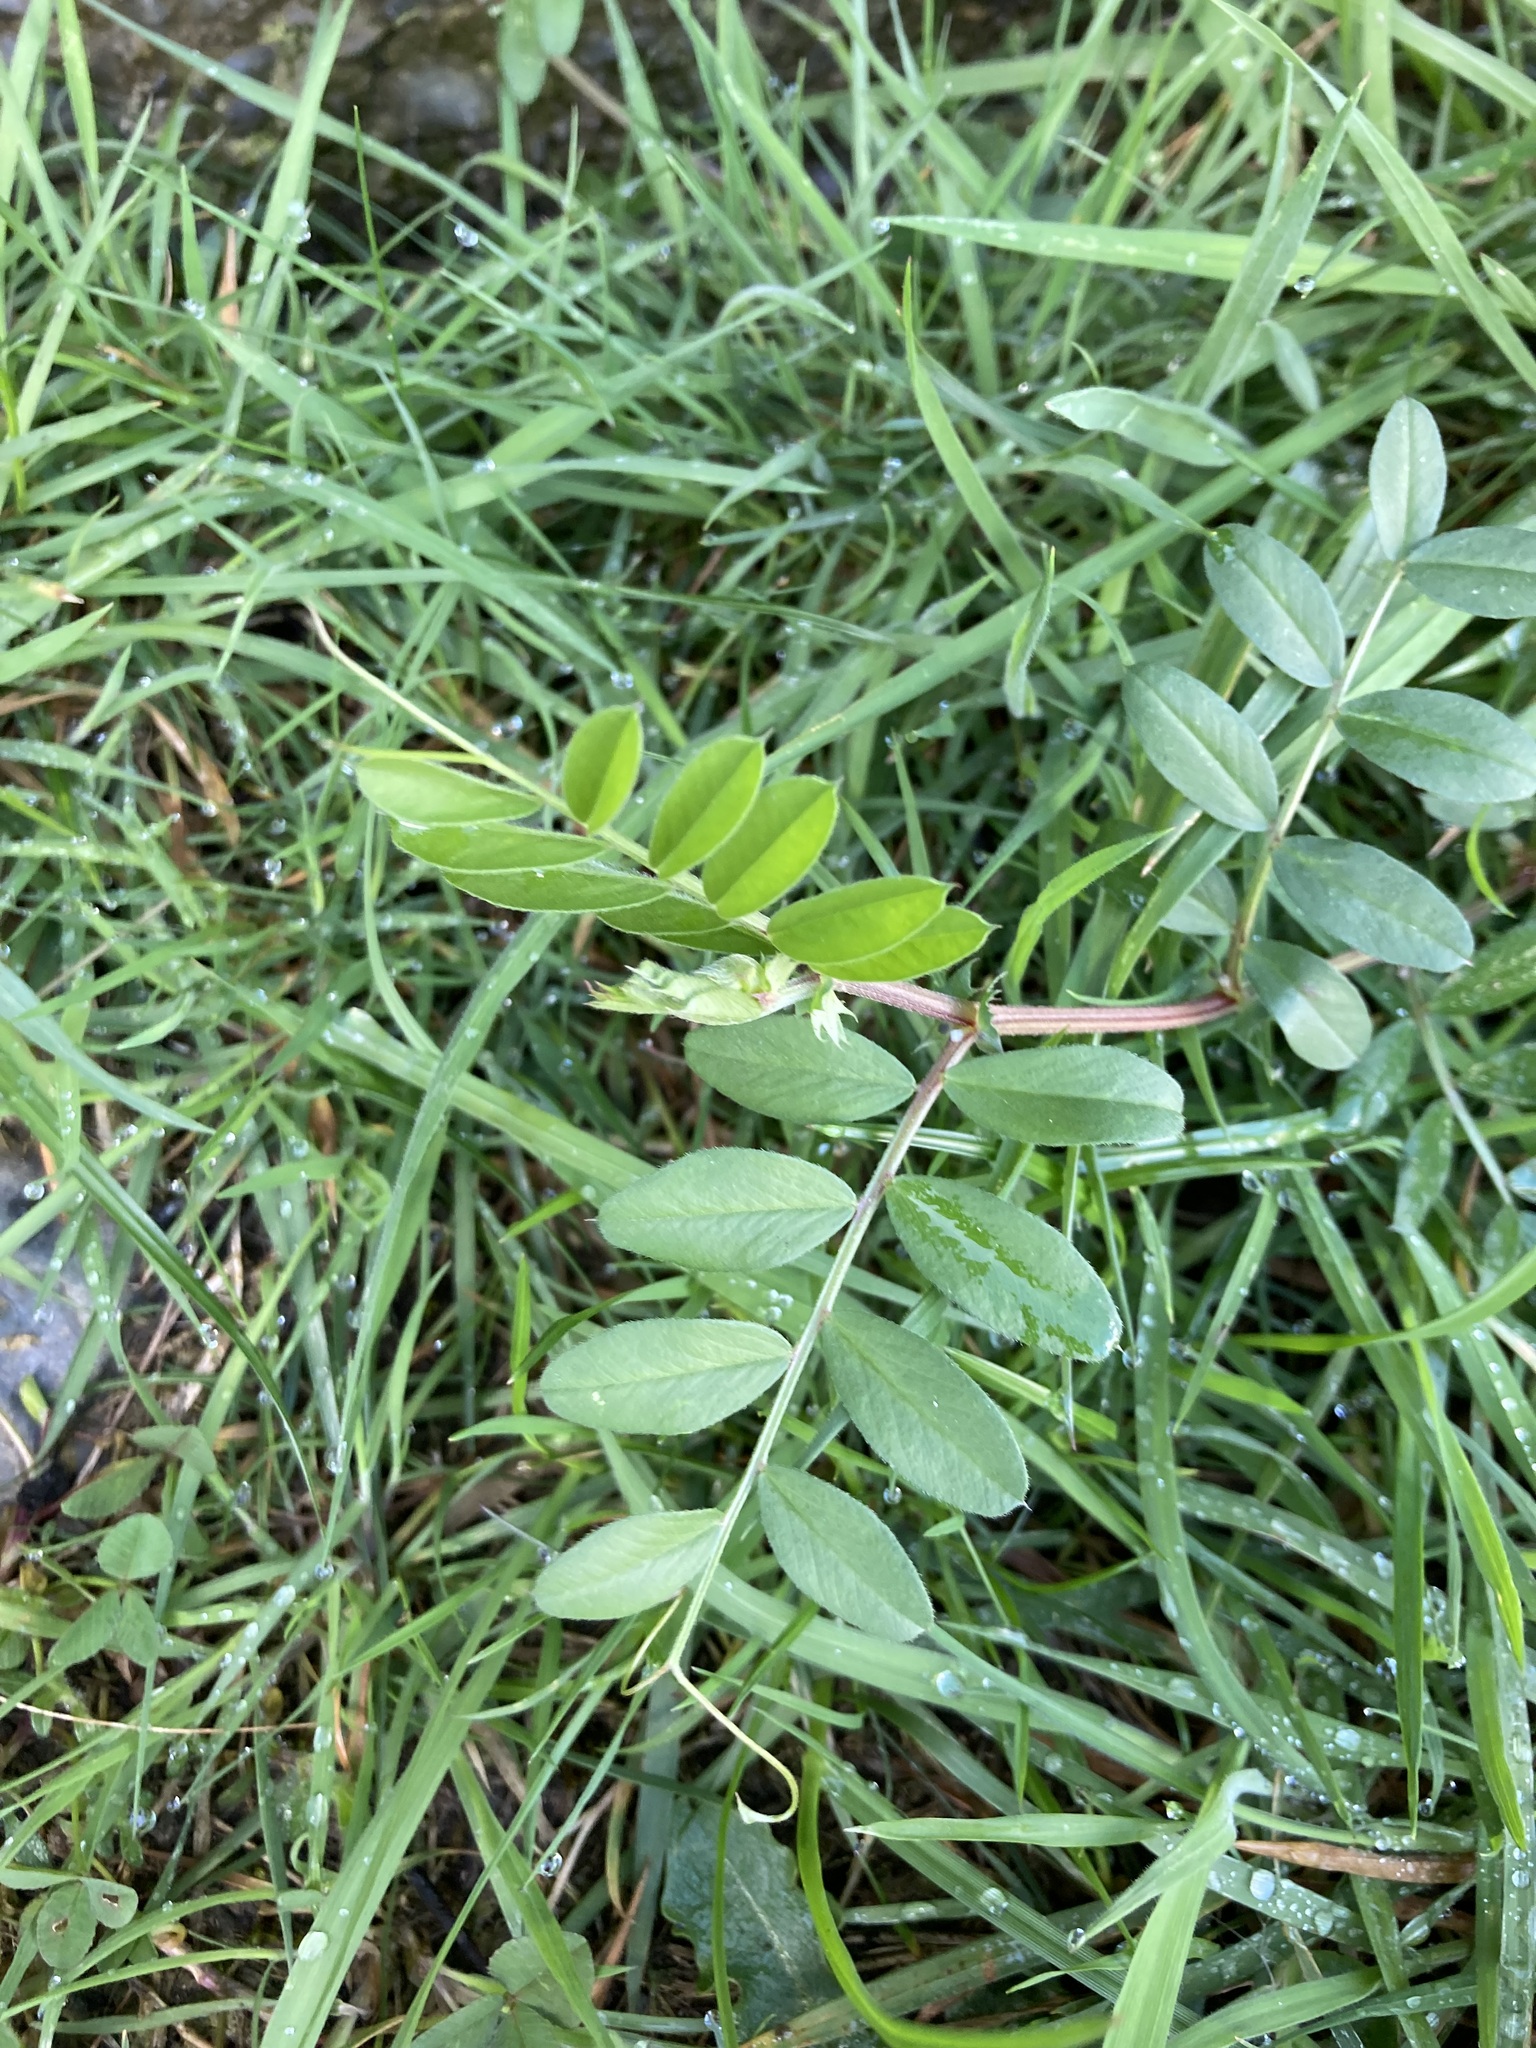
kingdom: Plantae
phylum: Tracheophyta
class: Magnoliopsida
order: Fabales
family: Fabaceae
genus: Vicia
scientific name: Vicia sativa
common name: Garden vetch
